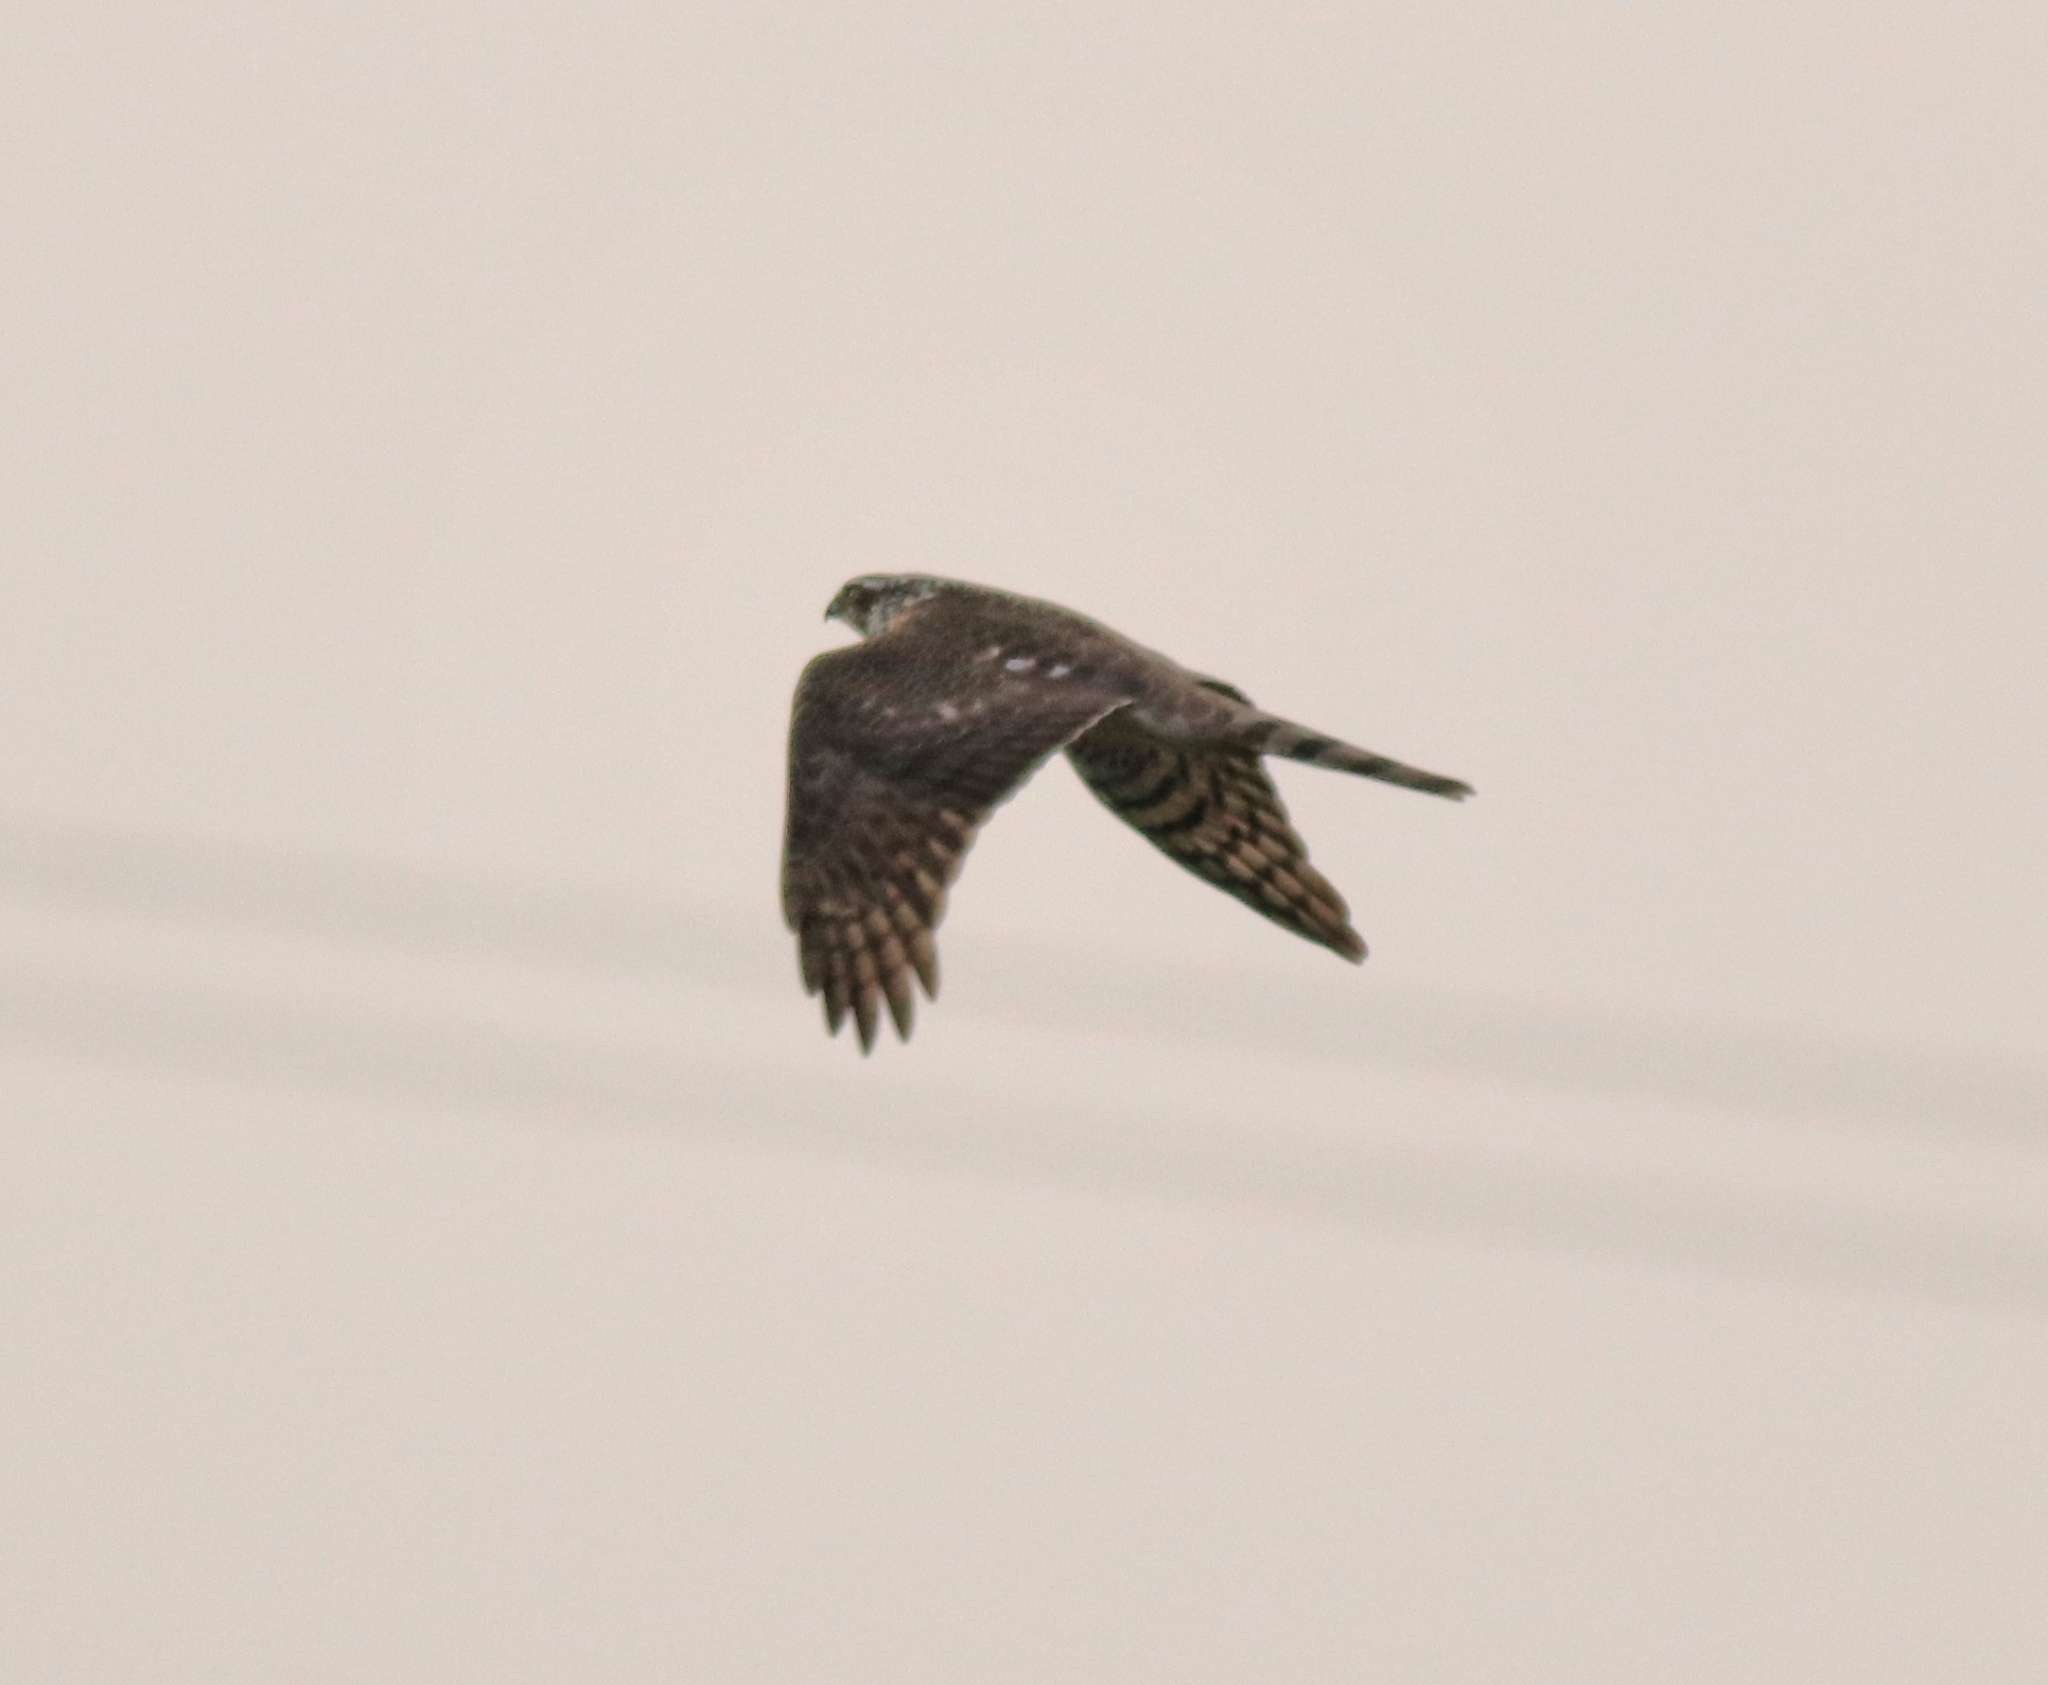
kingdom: Animalia
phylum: Chordata
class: Aves
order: Accipitriformes
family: Accipitridae
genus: Accipiter
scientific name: Accipiter nisus
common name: Eurasian sparrowhawk
